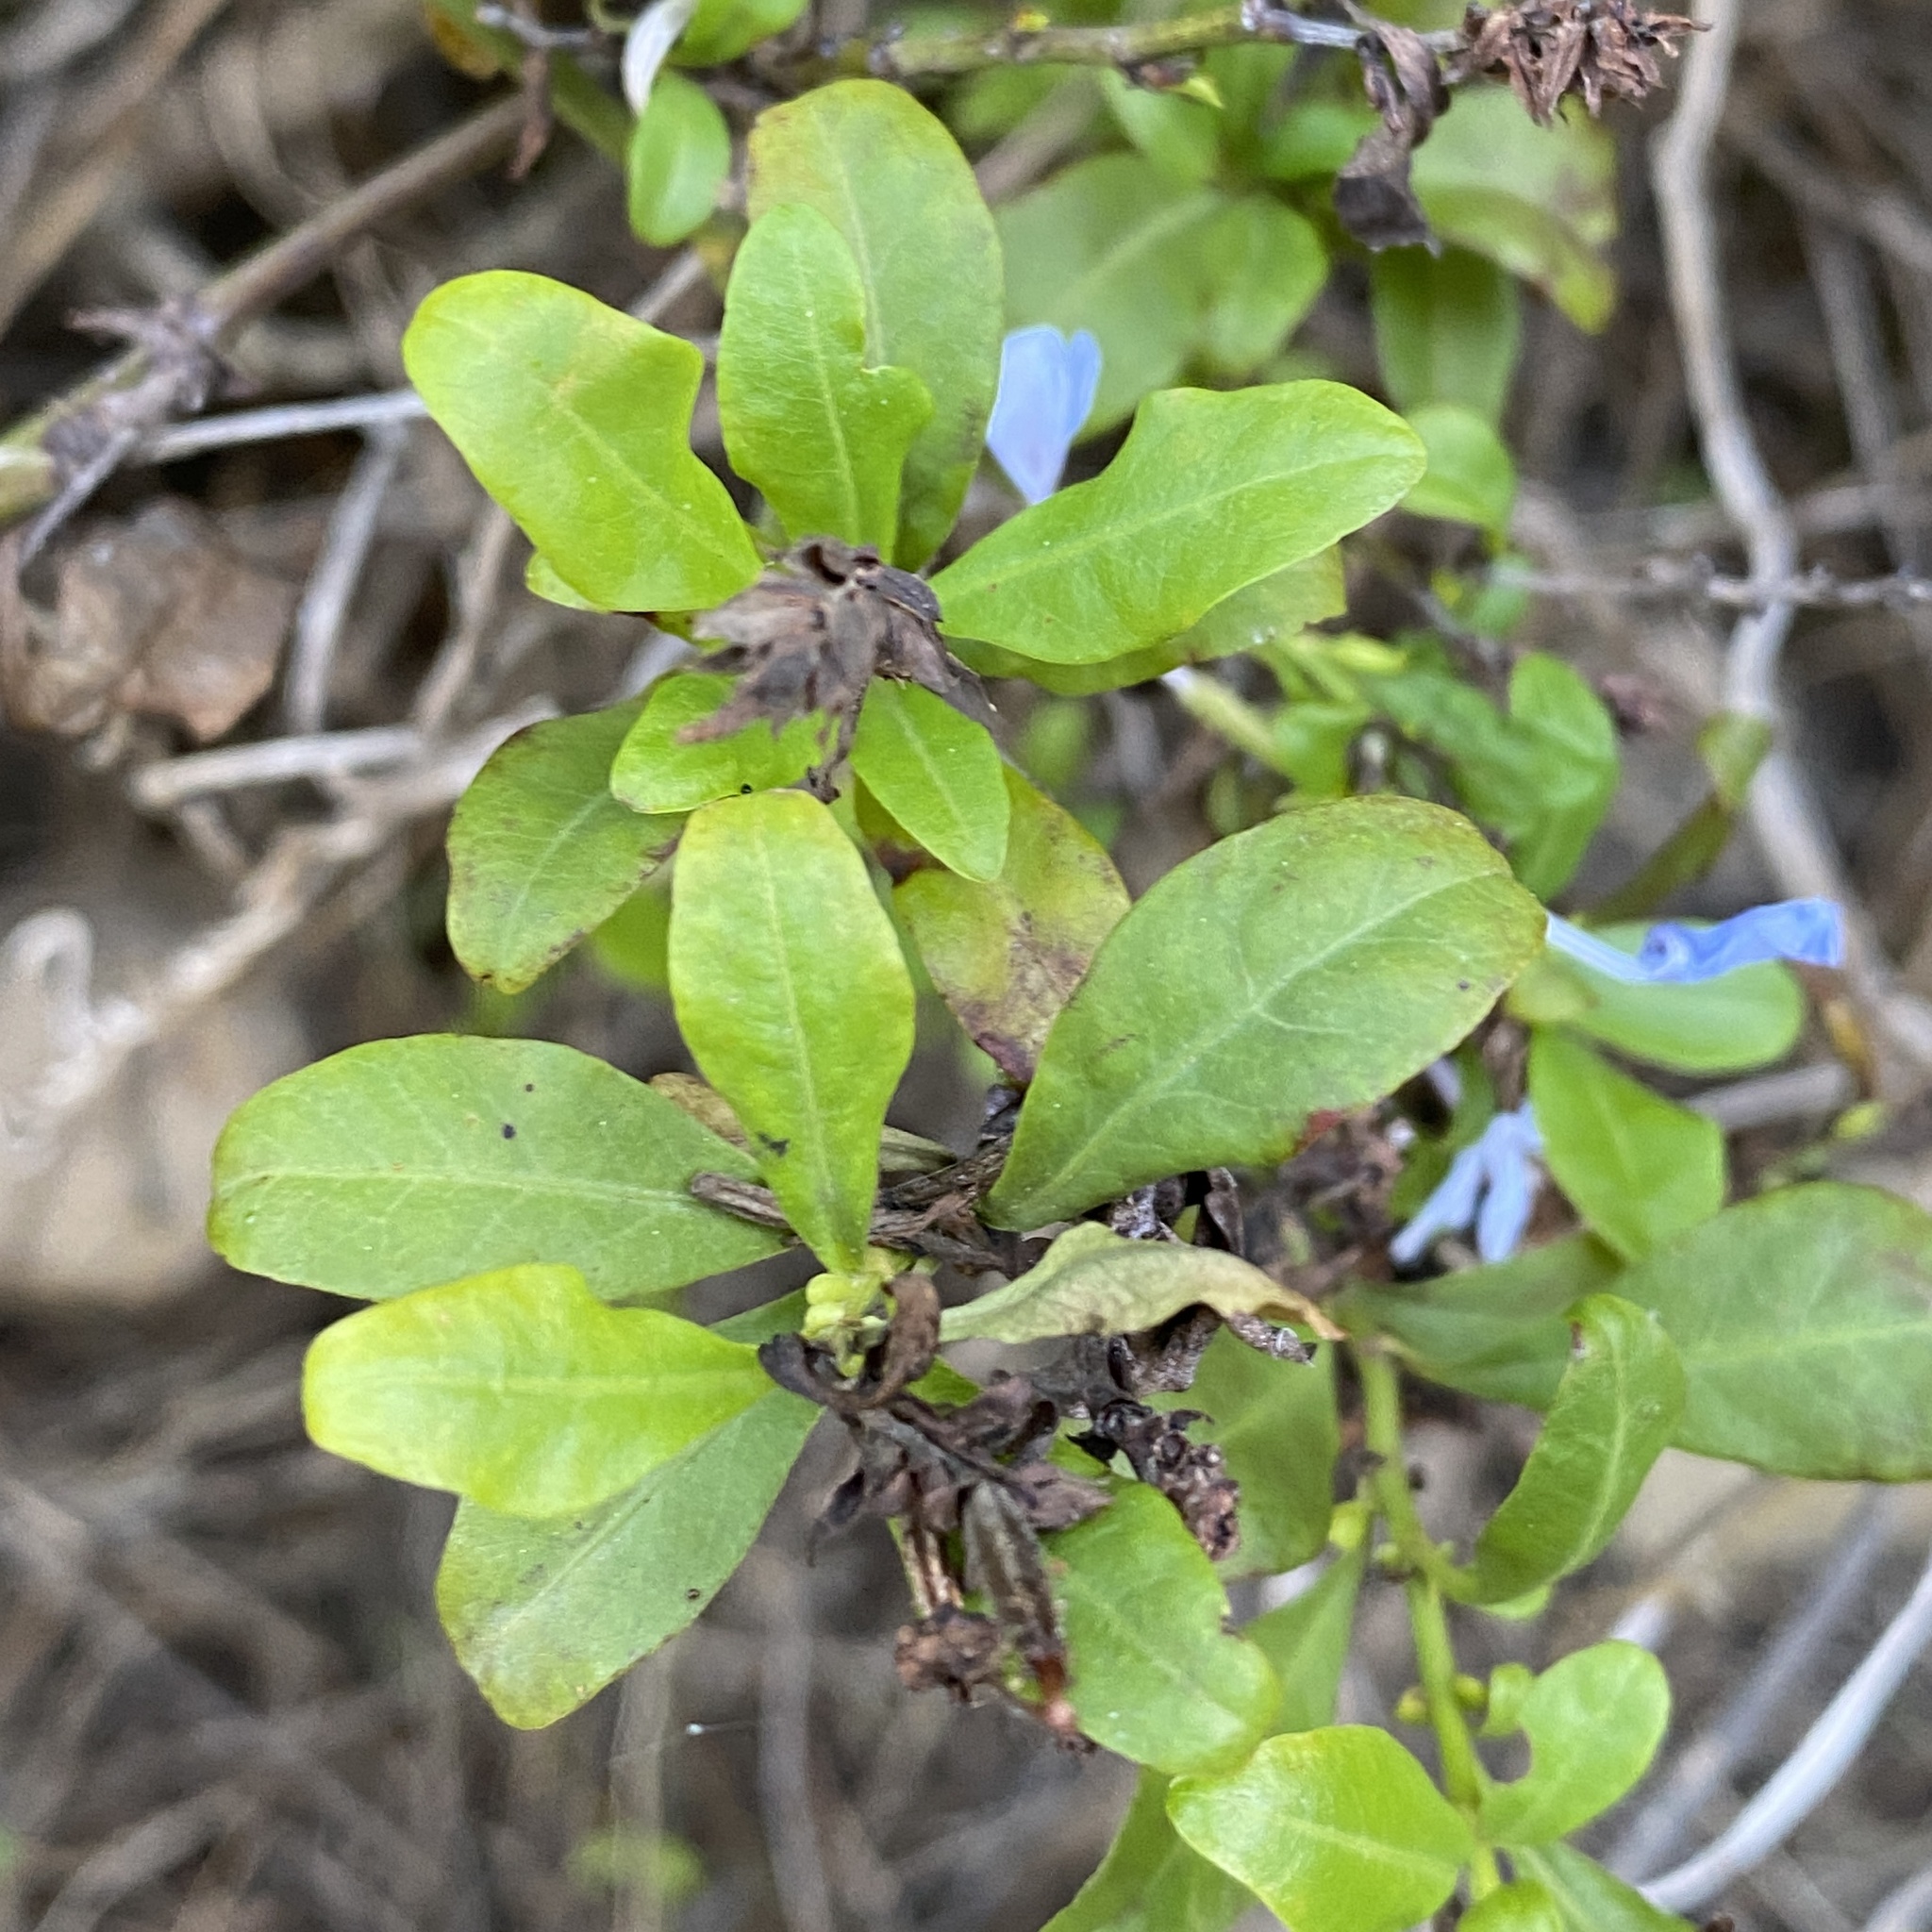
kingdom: Plantae
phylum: Tracheophyta
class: Magnoliopsida
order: Caryophyllales
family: Plumbaginaceae
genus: Plumbago
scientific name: Plumbago auriculata
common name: Cape leadwort
